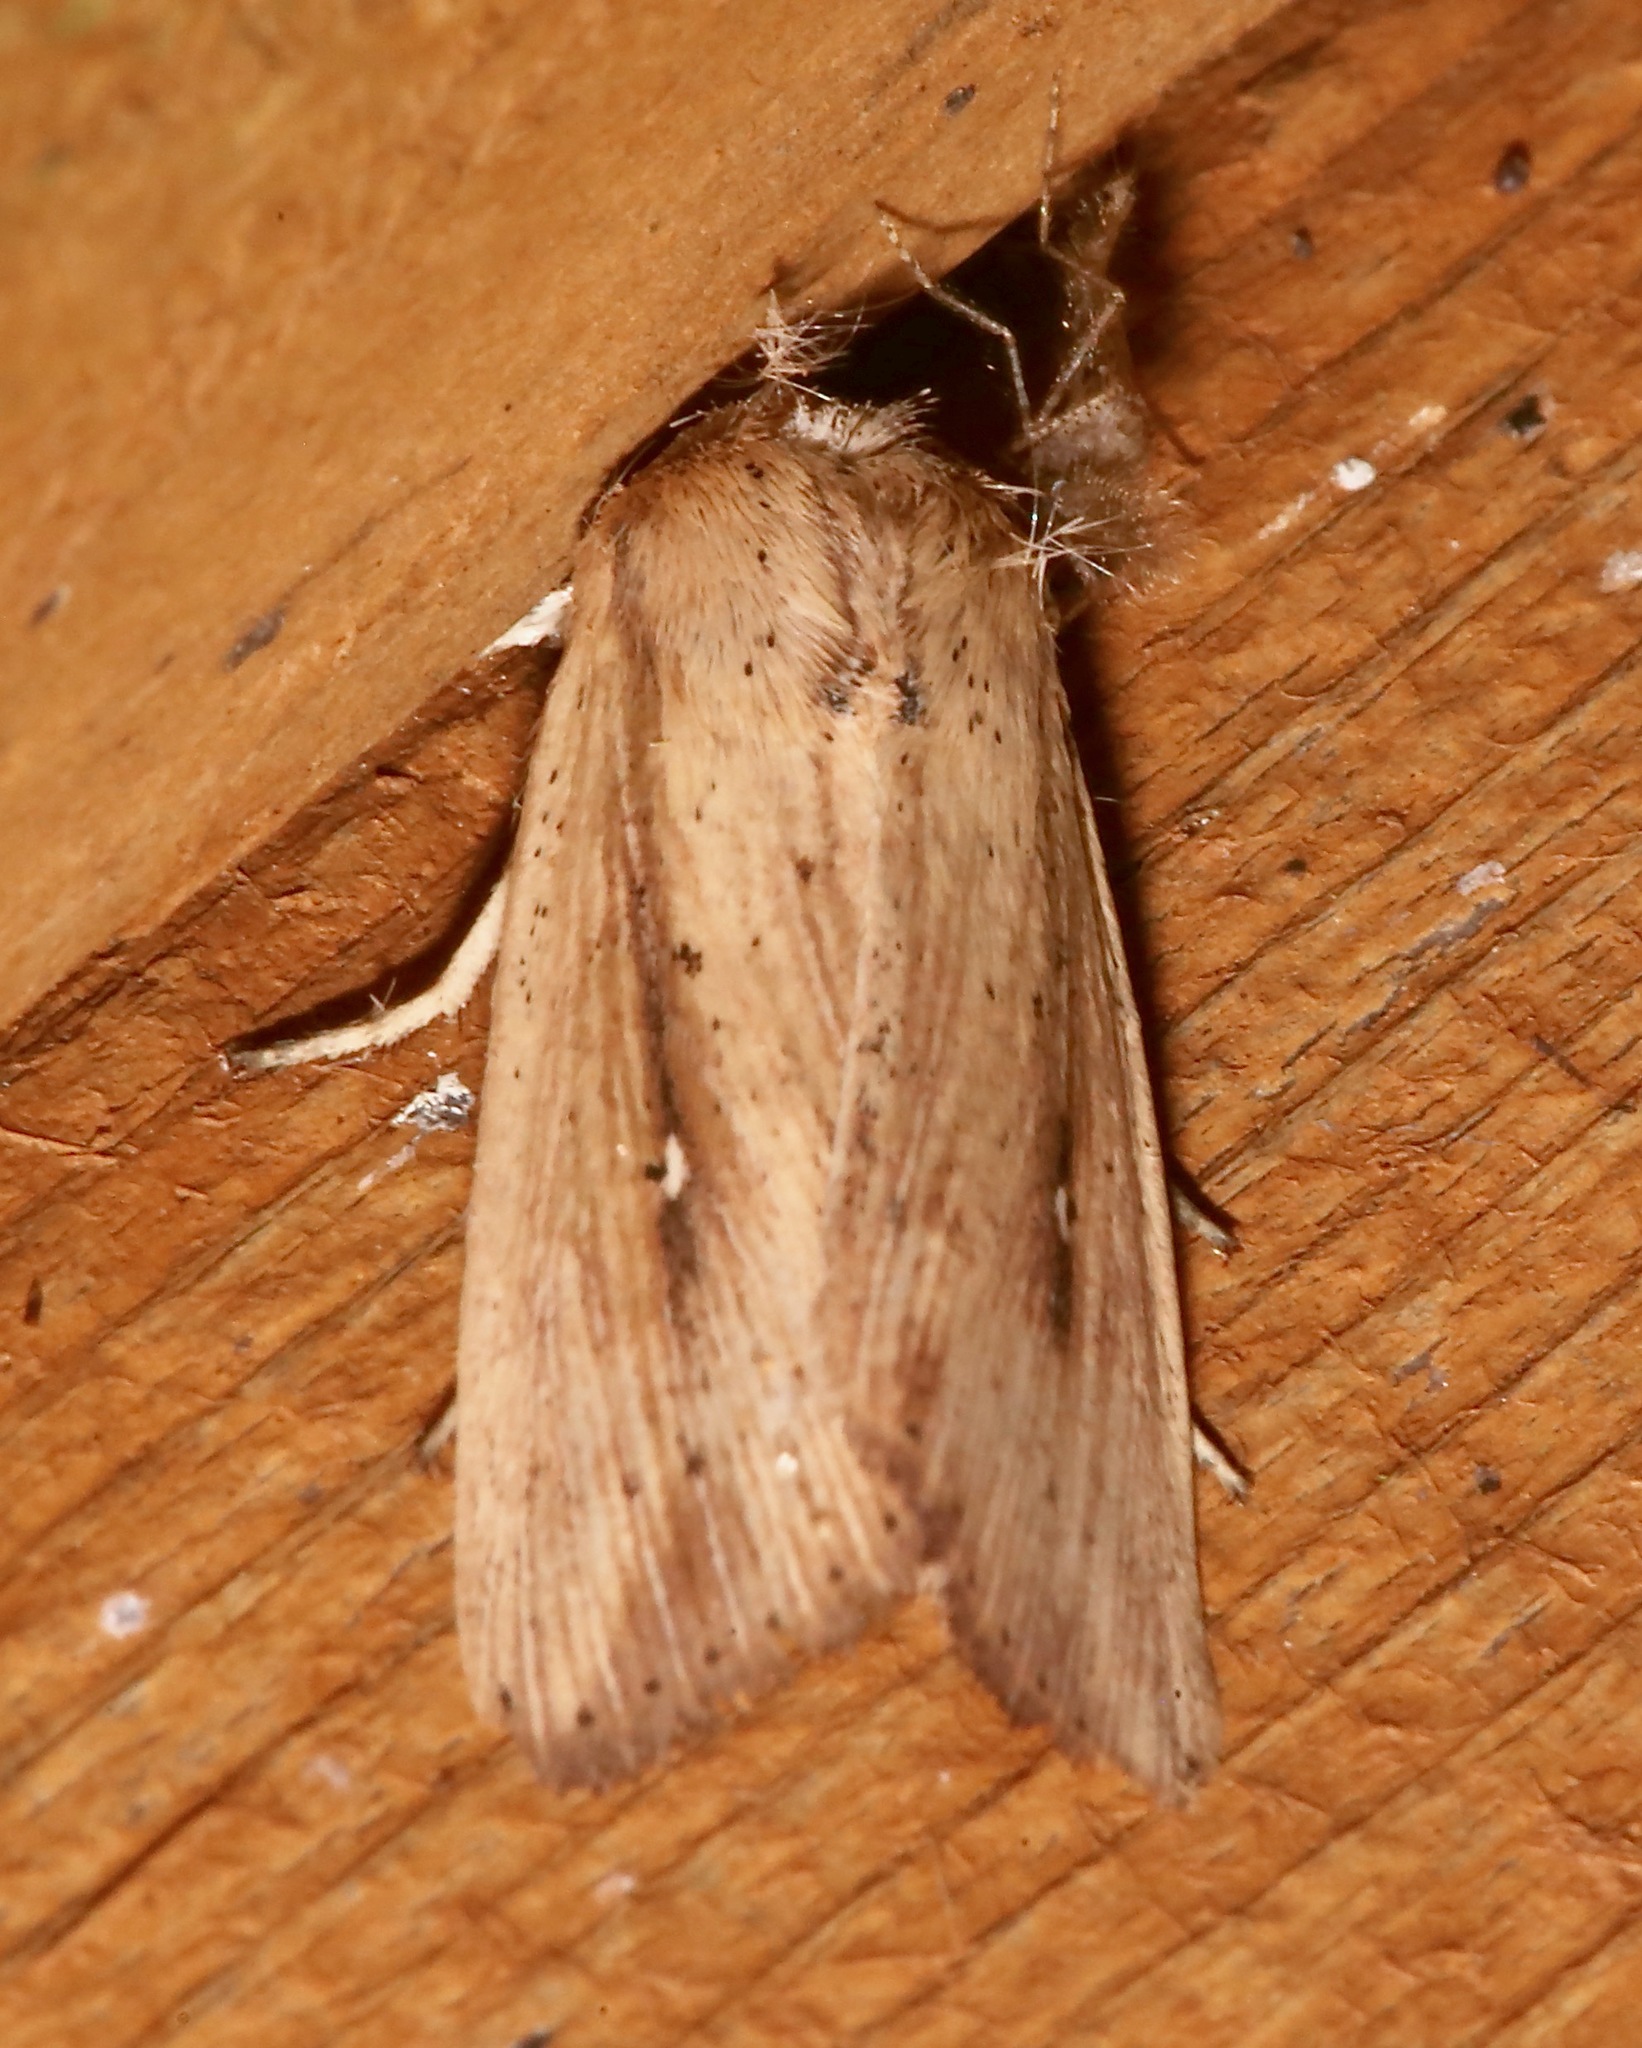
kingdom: Animalia
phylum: Arthropoda
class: Insecta
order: Lepidoptera
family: Noctuidae
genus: Leucania
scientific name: Leucania incognita
